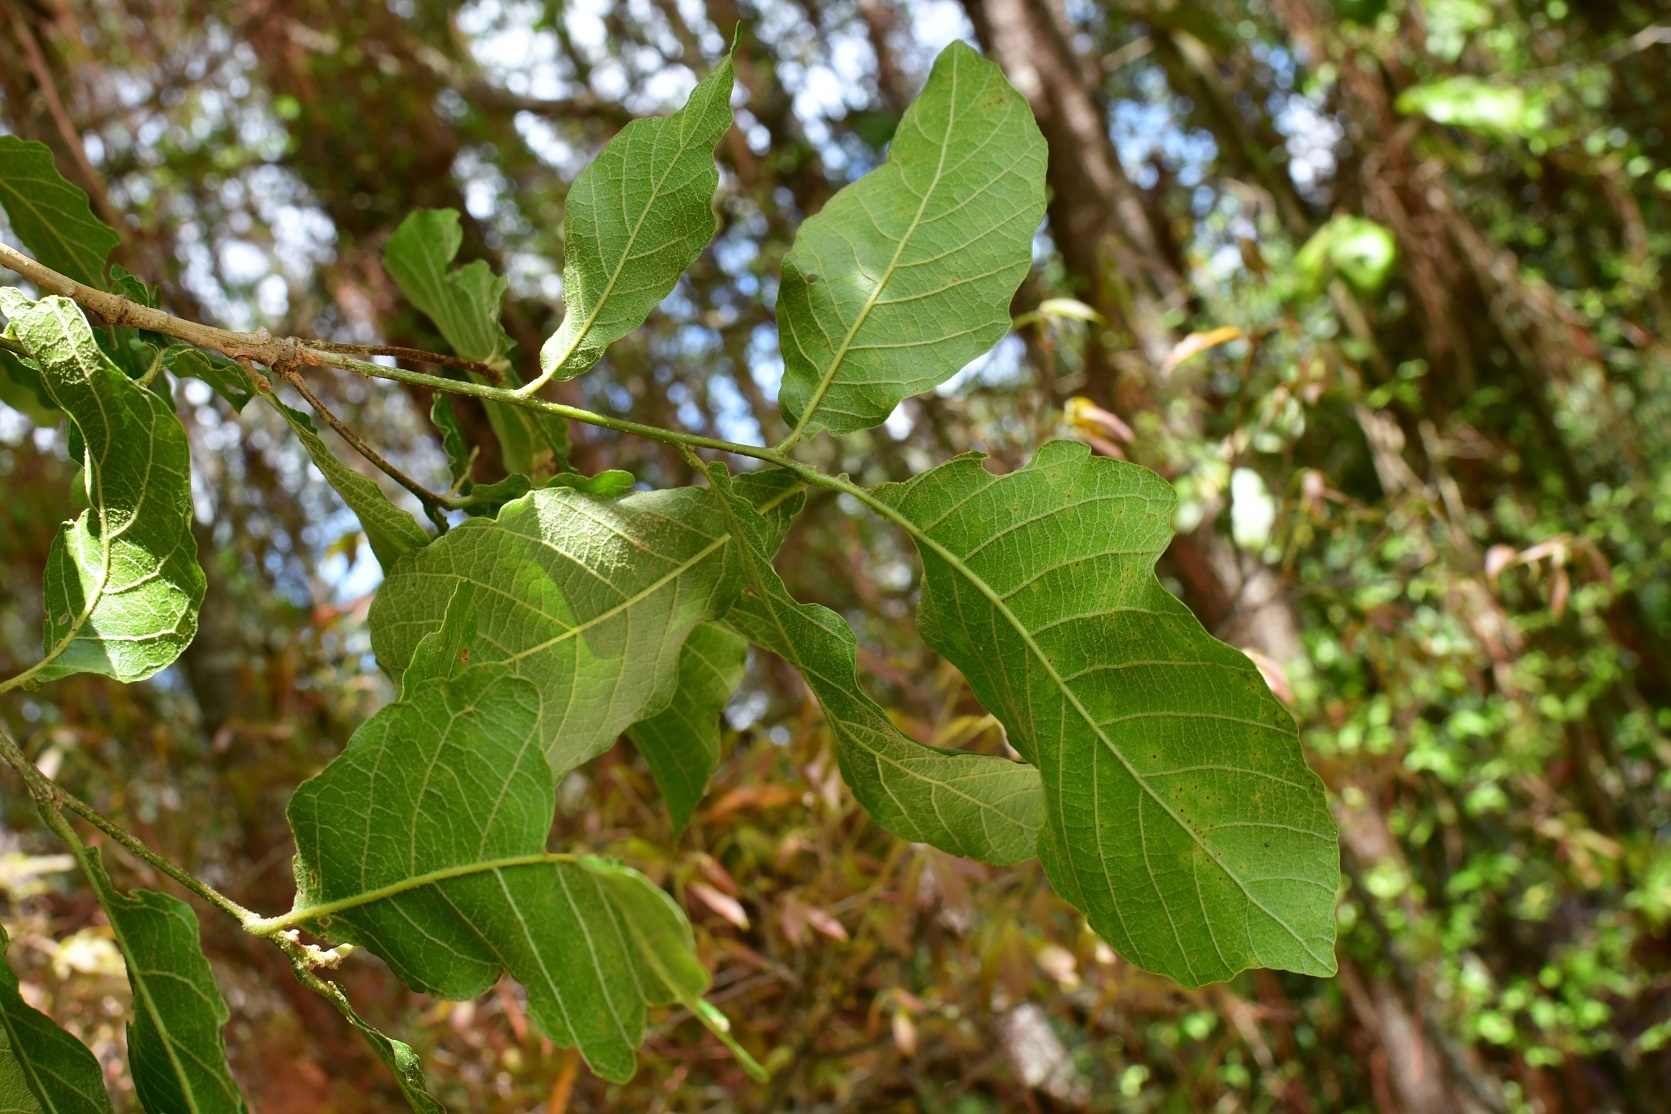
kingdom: Plantae
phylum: Tracheophyta
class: Magnoliopsida
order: Fagales
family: Fagaceae
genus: Quercus
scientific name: Quercus segoviensis
